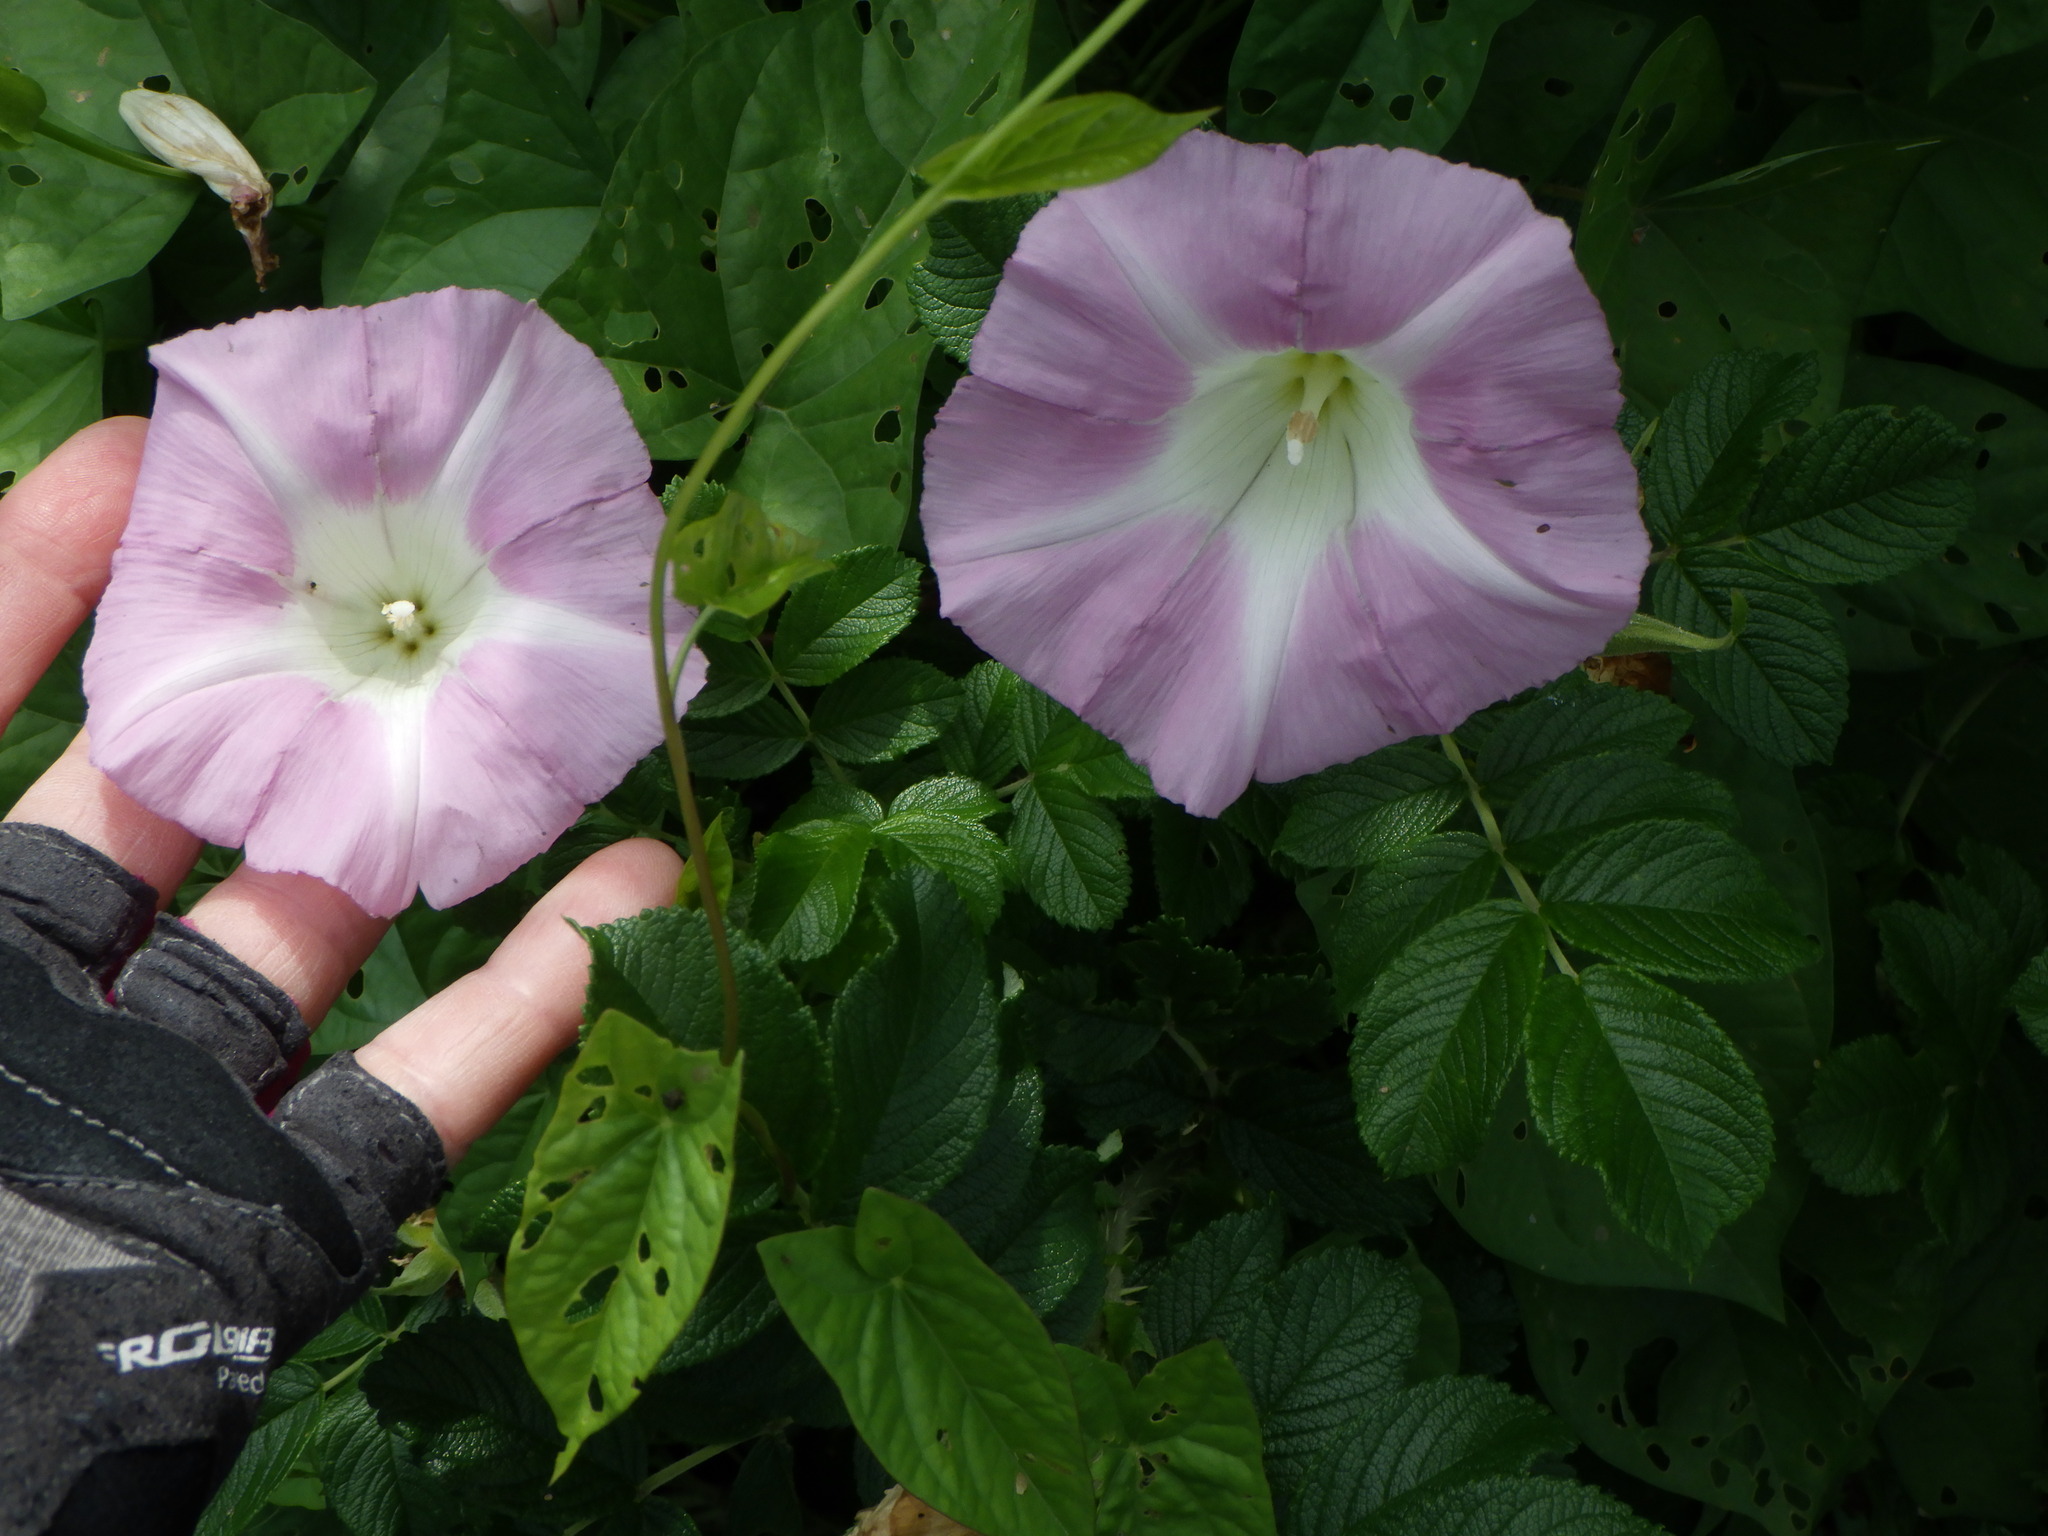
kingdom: Plantae
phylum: Tracheophyta
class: Magnoliopsida
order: Solanales
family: Convolvulaceae
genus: Calystegia
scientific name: Calystegia sepium
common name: Hedge bindweed
